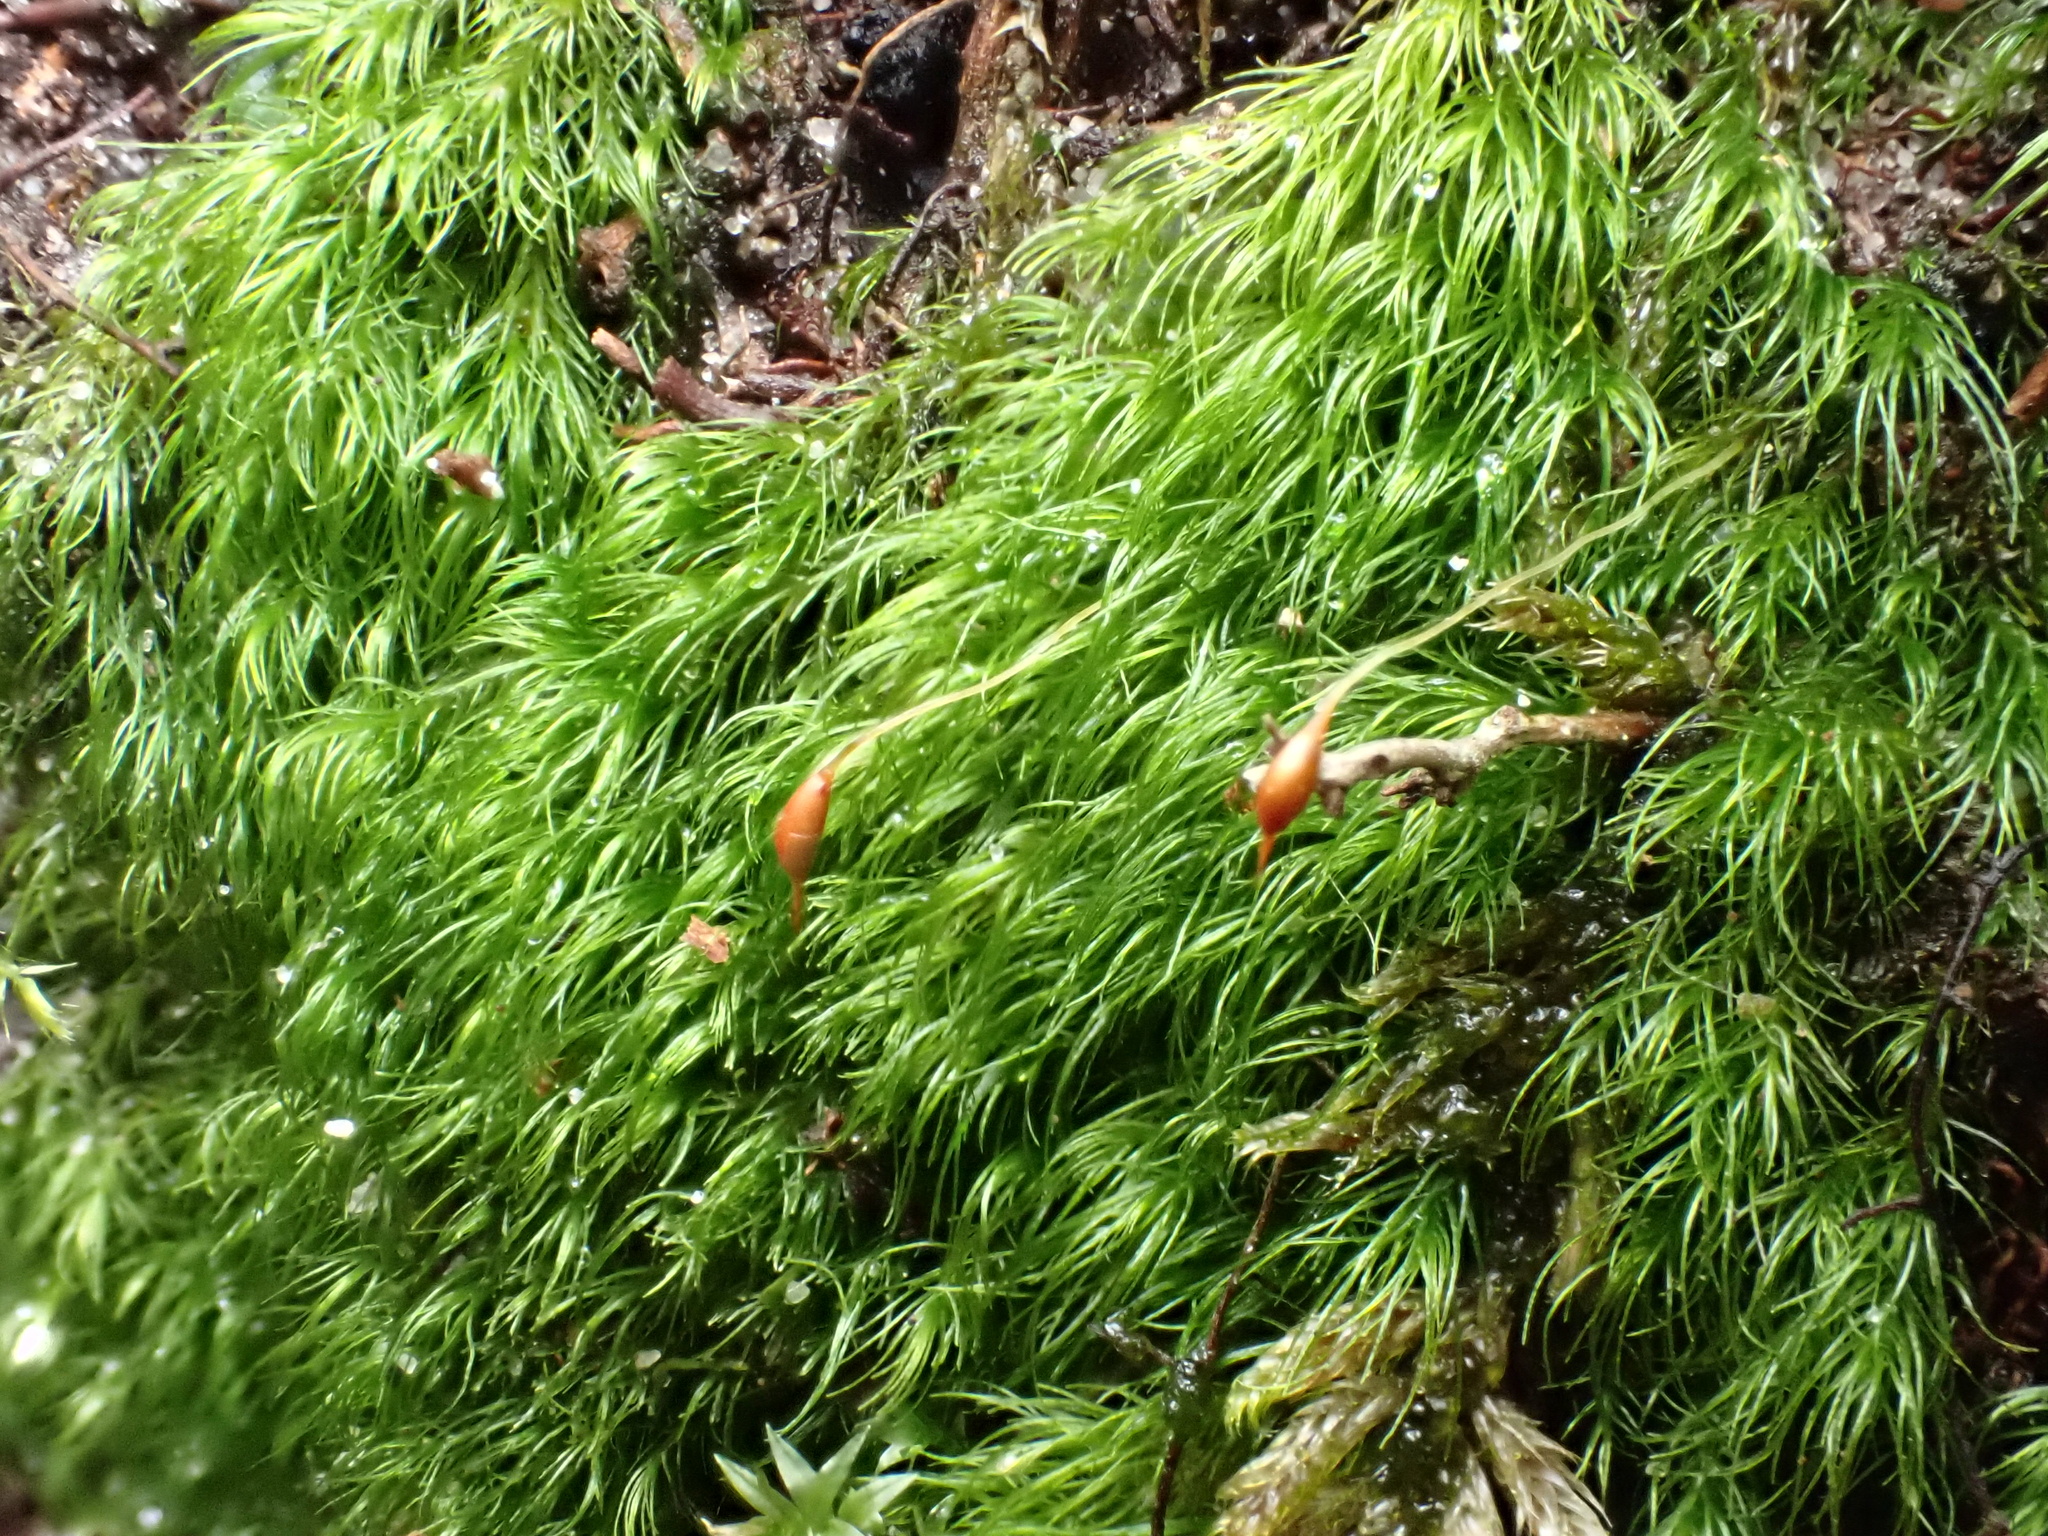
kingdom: Plantae
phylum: Bryophyta
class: Bryopsida
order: Dicranales
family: Dicranellaceae
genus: Dicranella
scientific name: Dicranella heteromalla
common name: Silky forklet moss
